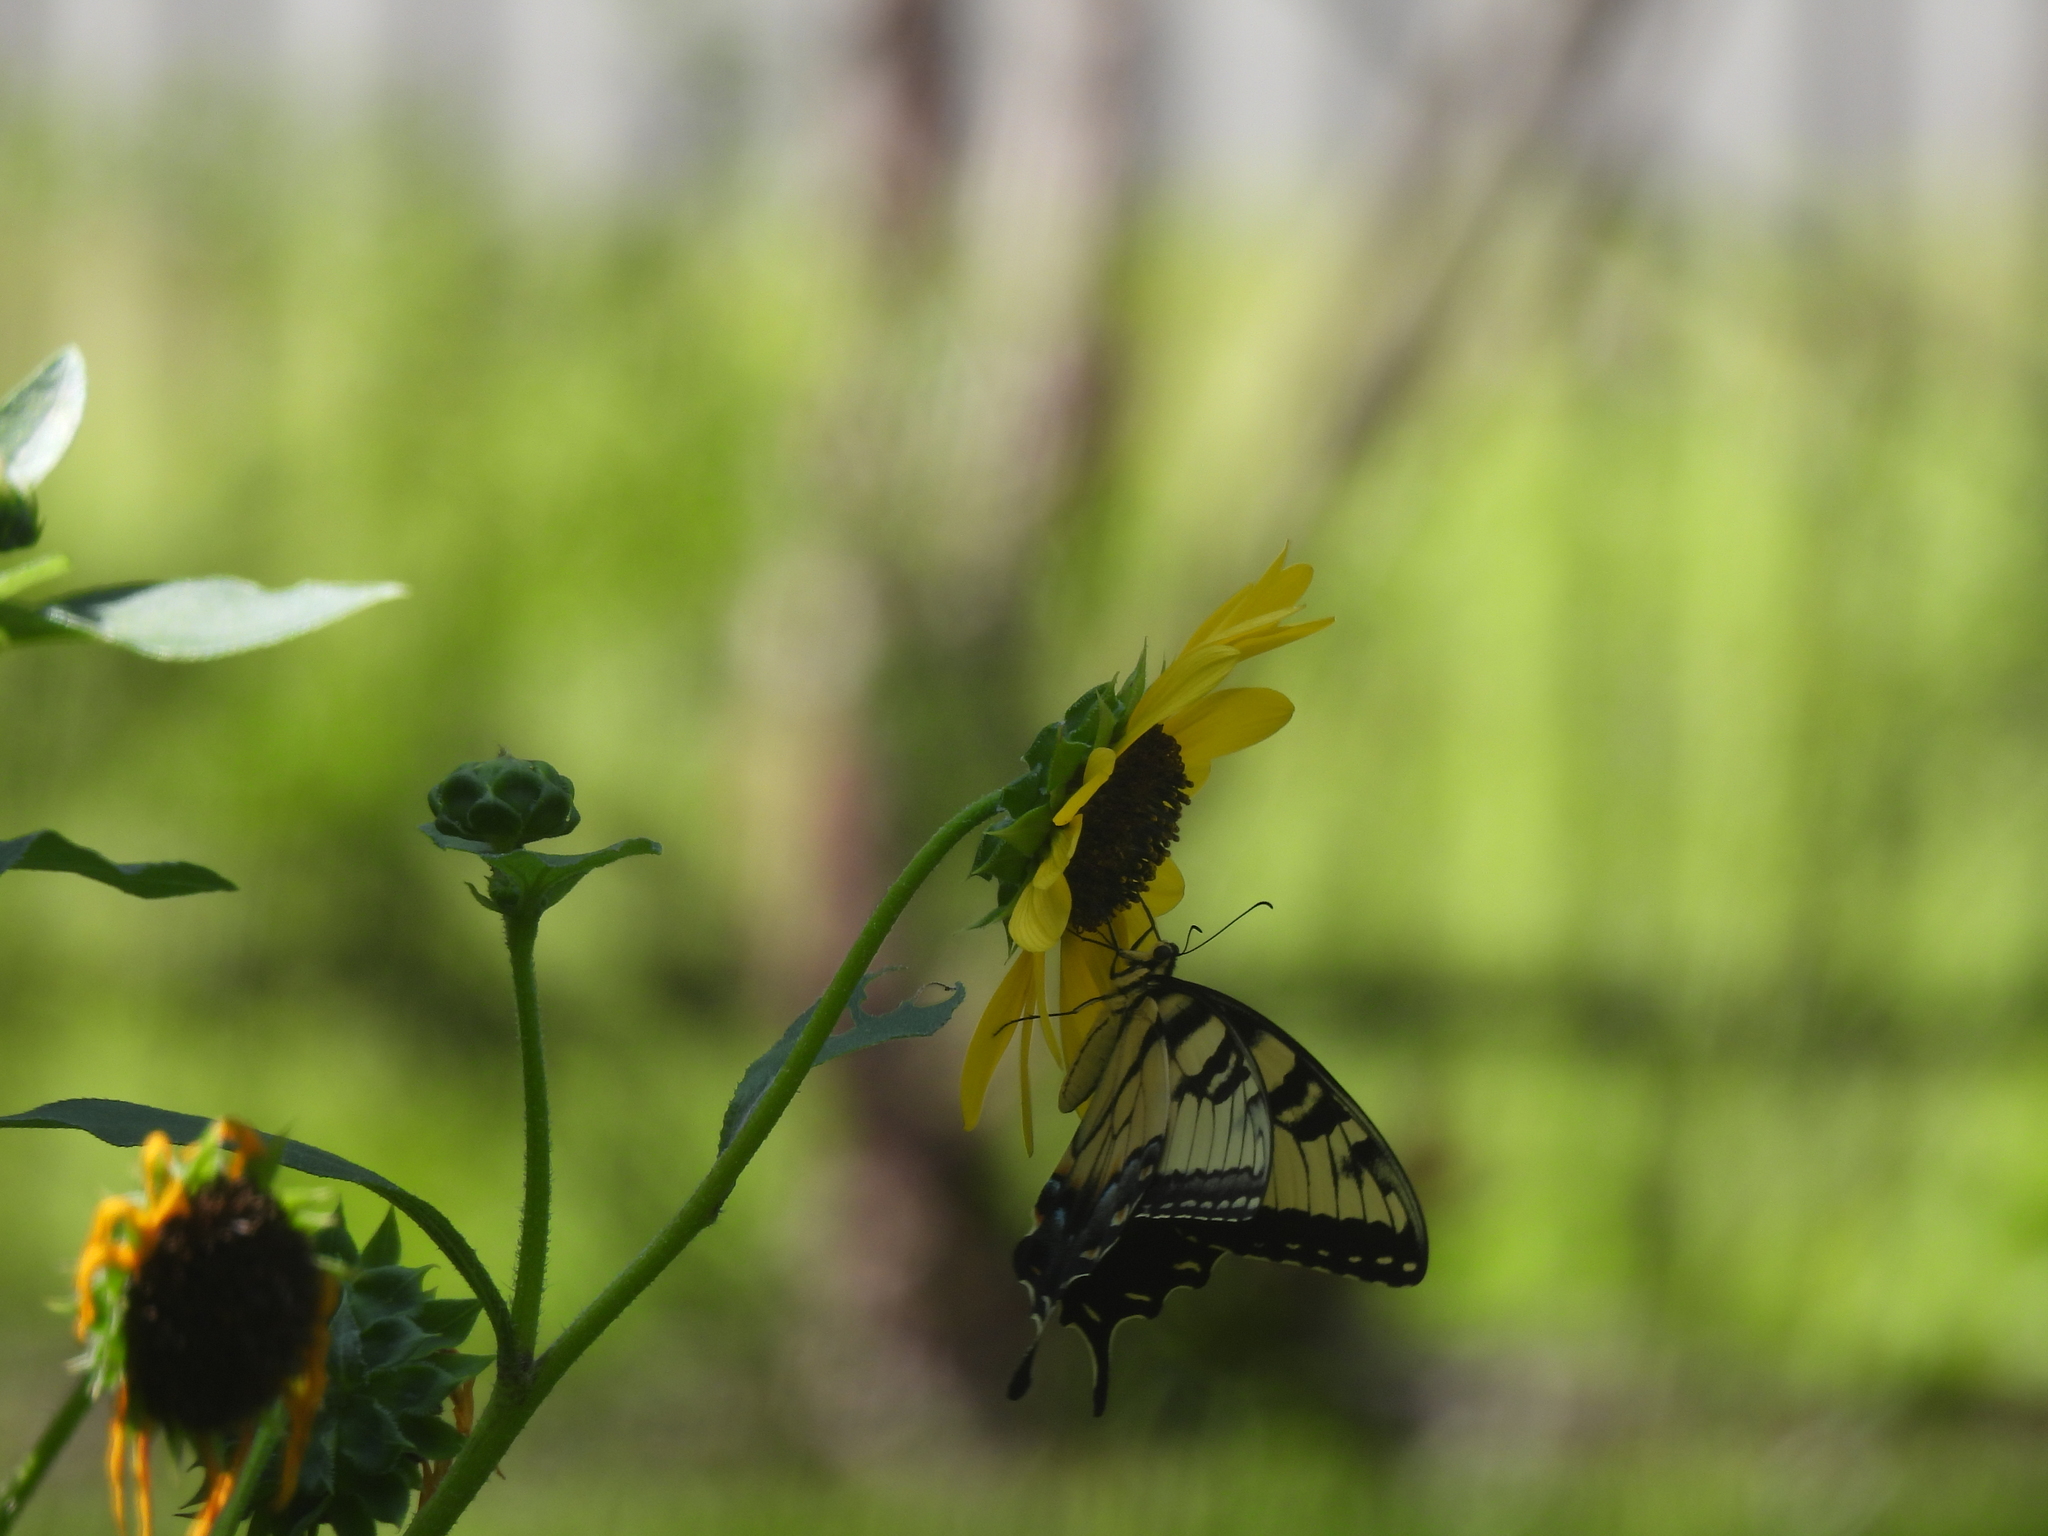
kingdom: Animalia
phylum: Arthropoda
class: Insecta
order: Lepidoptera
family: Papilionidae
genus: Papilio
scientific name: Papilio glaucus
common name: Tiger swallowtail
